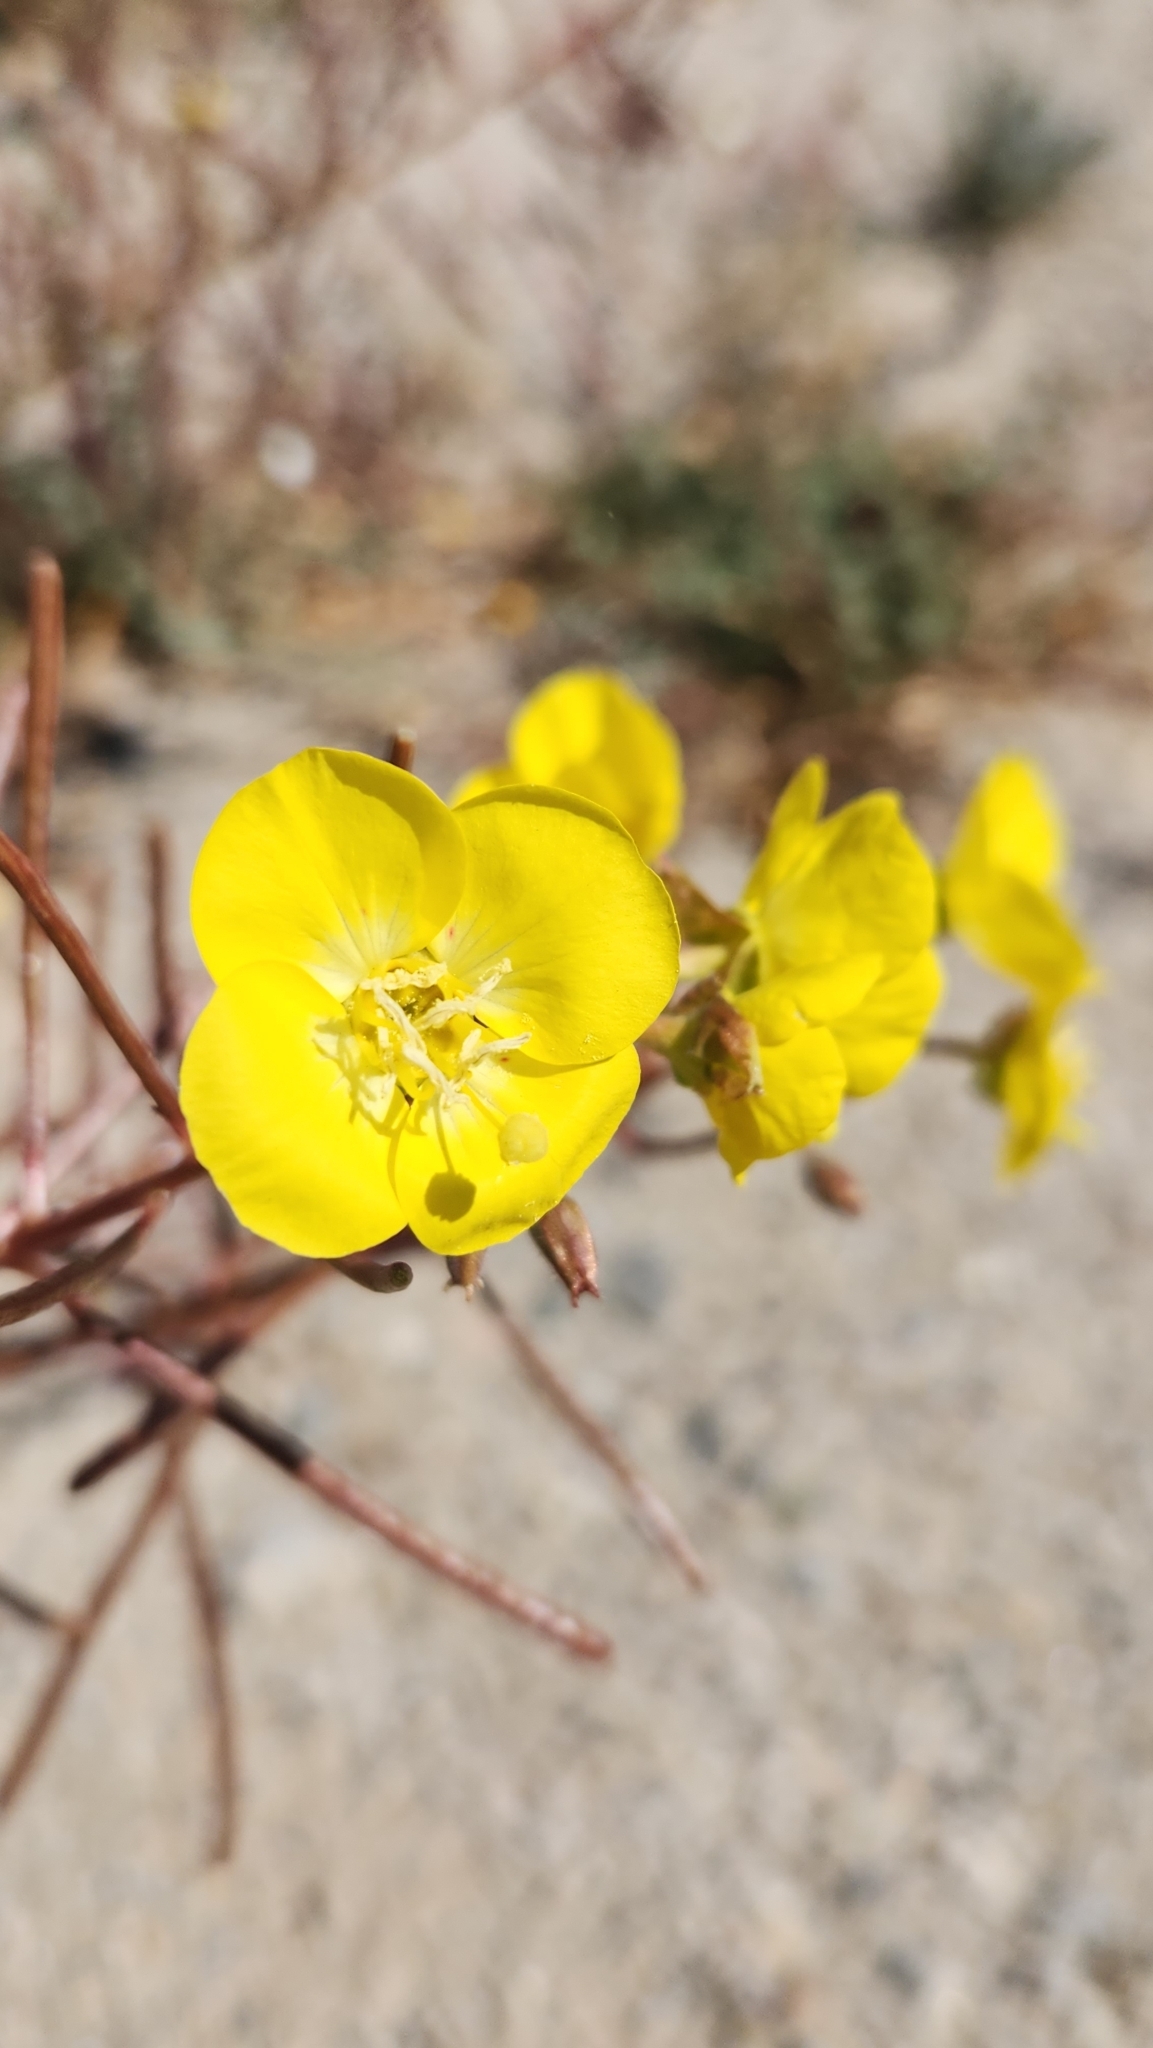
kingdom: Plantae
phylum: Tracheophyta
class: Magnoliopsida
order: Myrtales
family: Onagraceae
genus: Chylismia
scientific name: Chylismia brevipes
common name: Yellow cups
